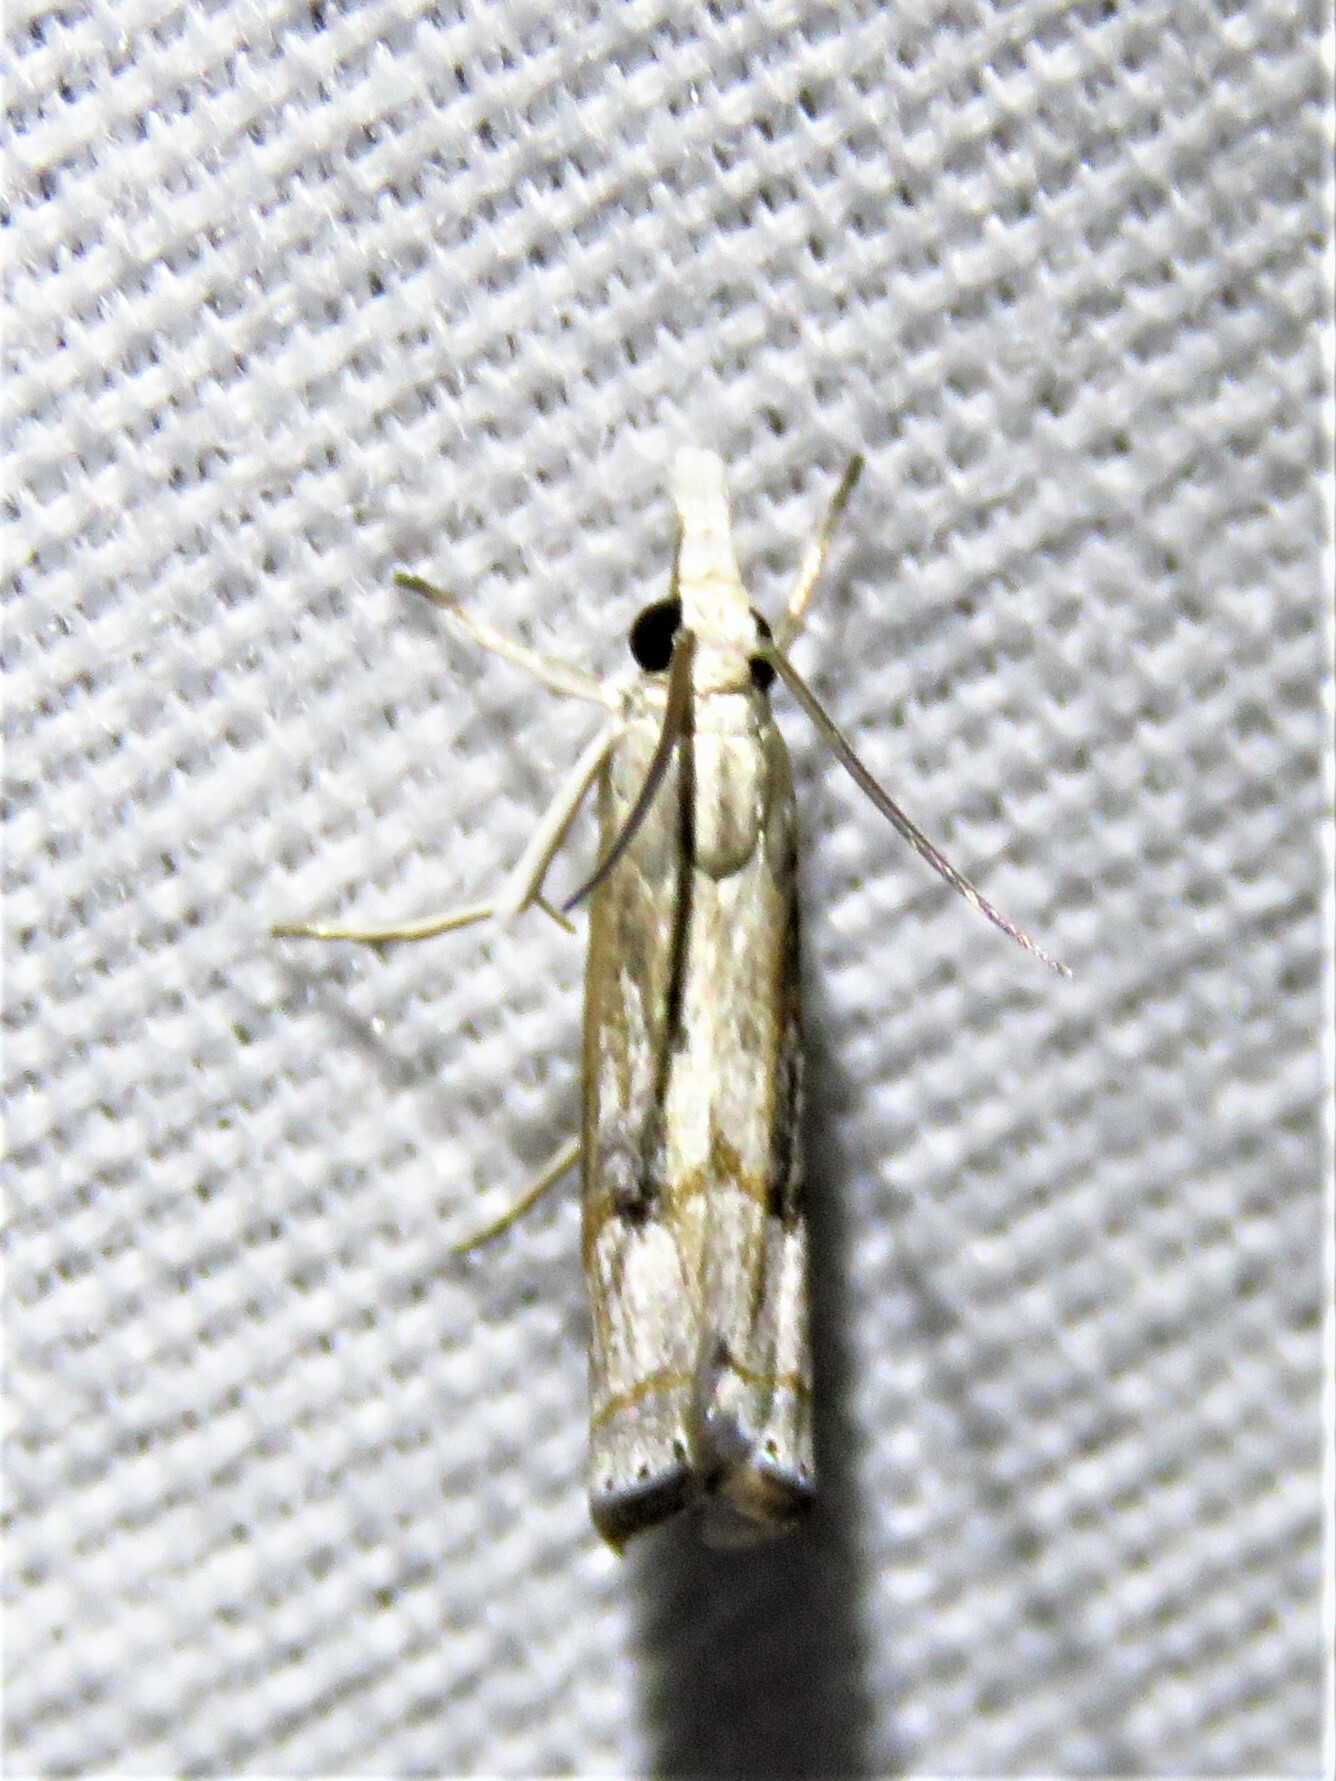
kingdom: Animalia
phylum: Arthropoda
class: Insecta
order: Lepidoptera
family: Crambidae
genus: Parapediasia
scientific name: Parapediasia teterellus
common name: Bluegrass webworm moth
